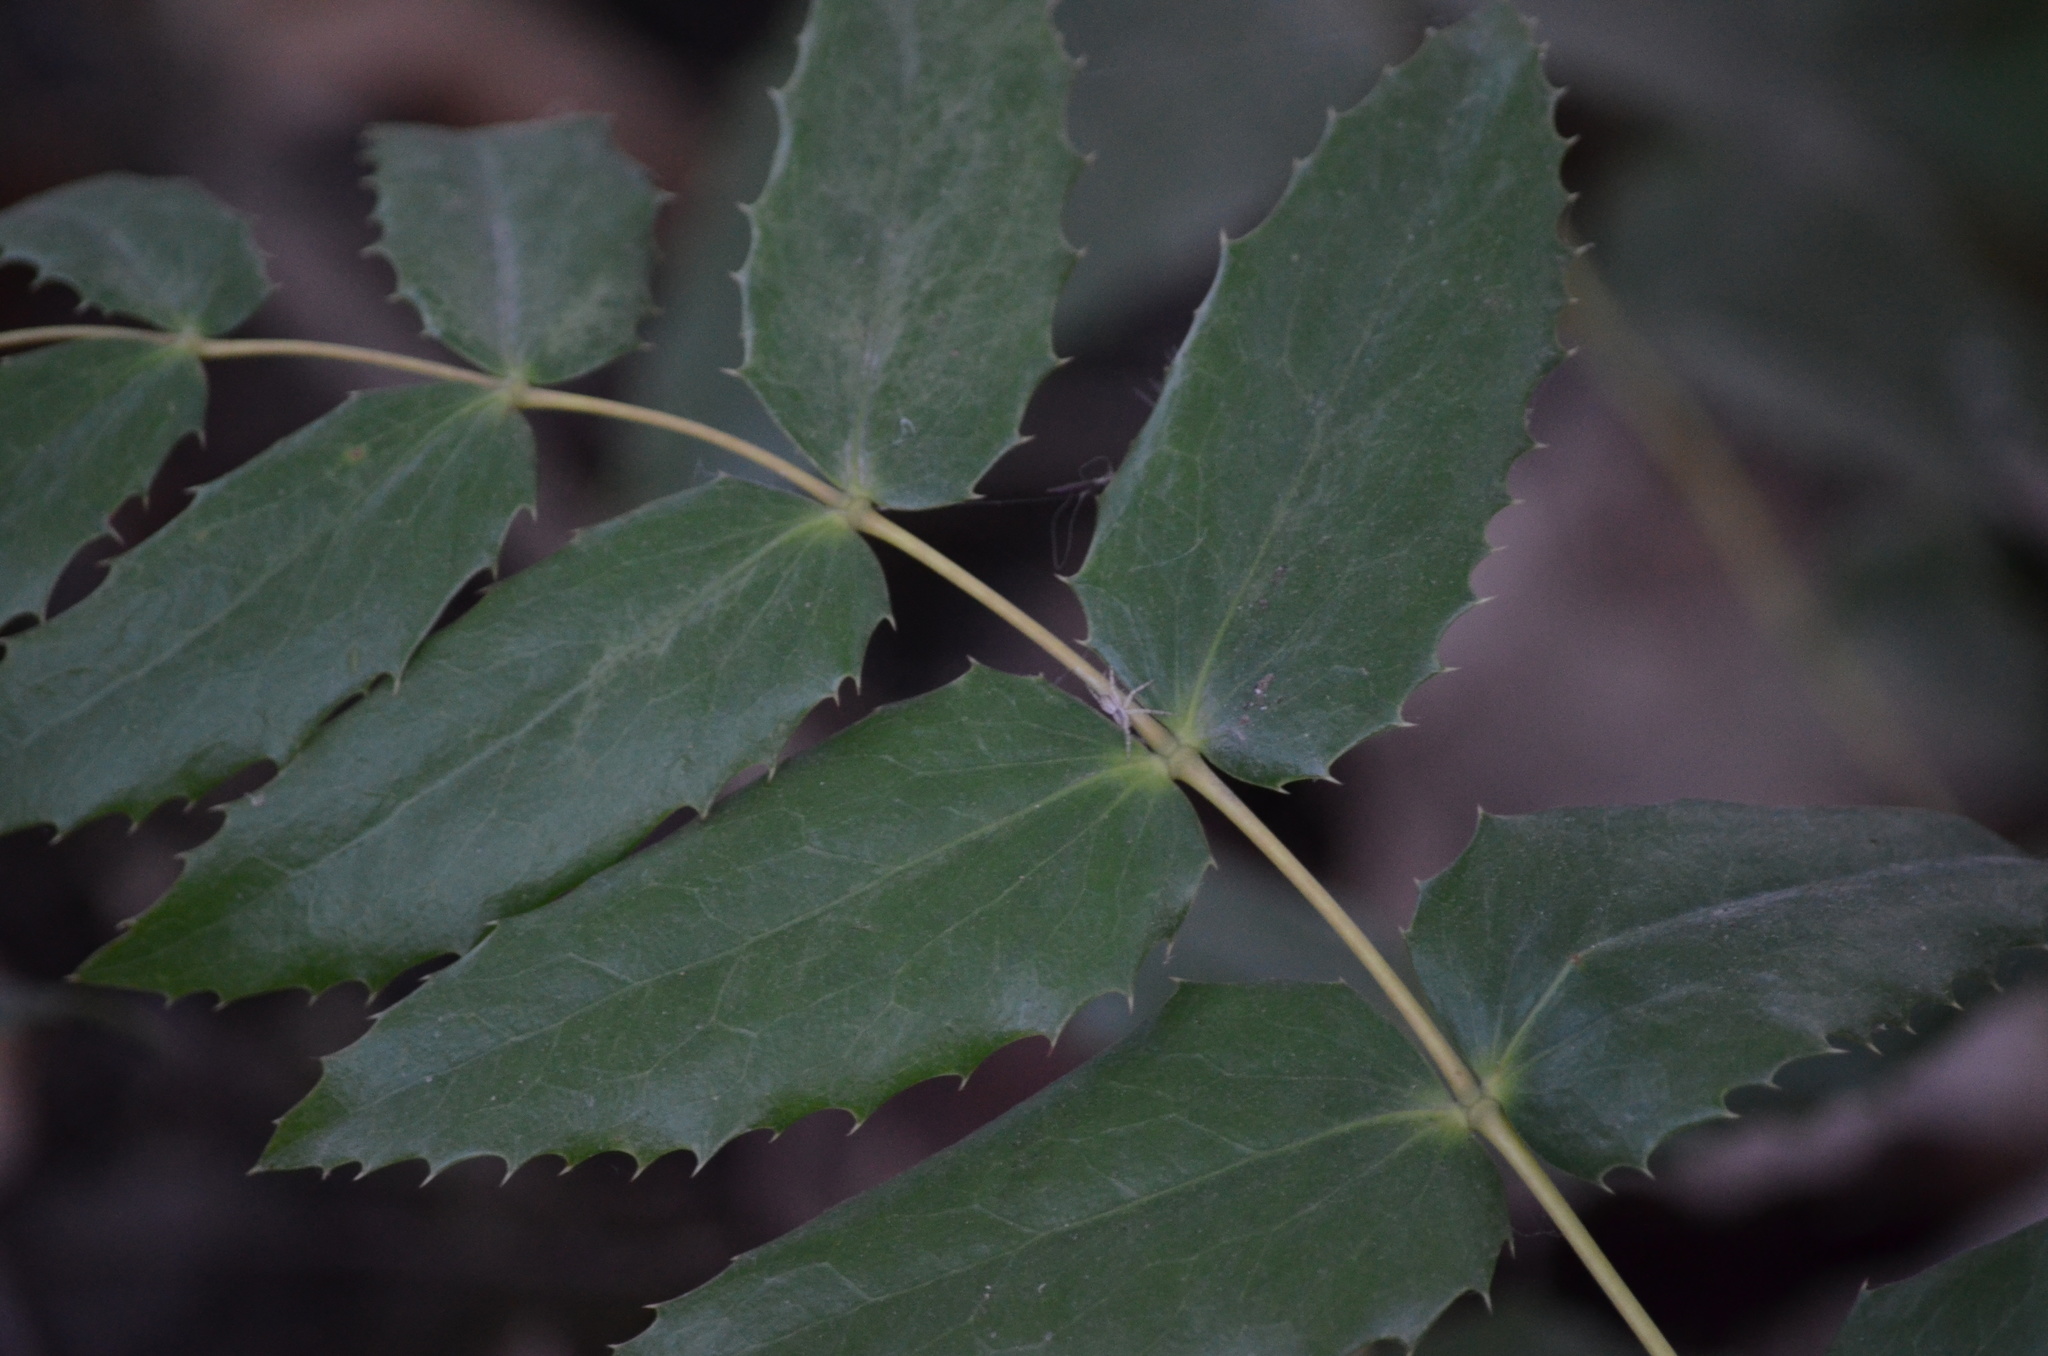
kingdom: Plantae
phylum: Tracheophyta
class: Magnoliopsida
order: Ranunculales
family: Berberidaceae
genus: Mahonia
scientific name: Mahonia nervosa
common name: Cascade oregon-grape
